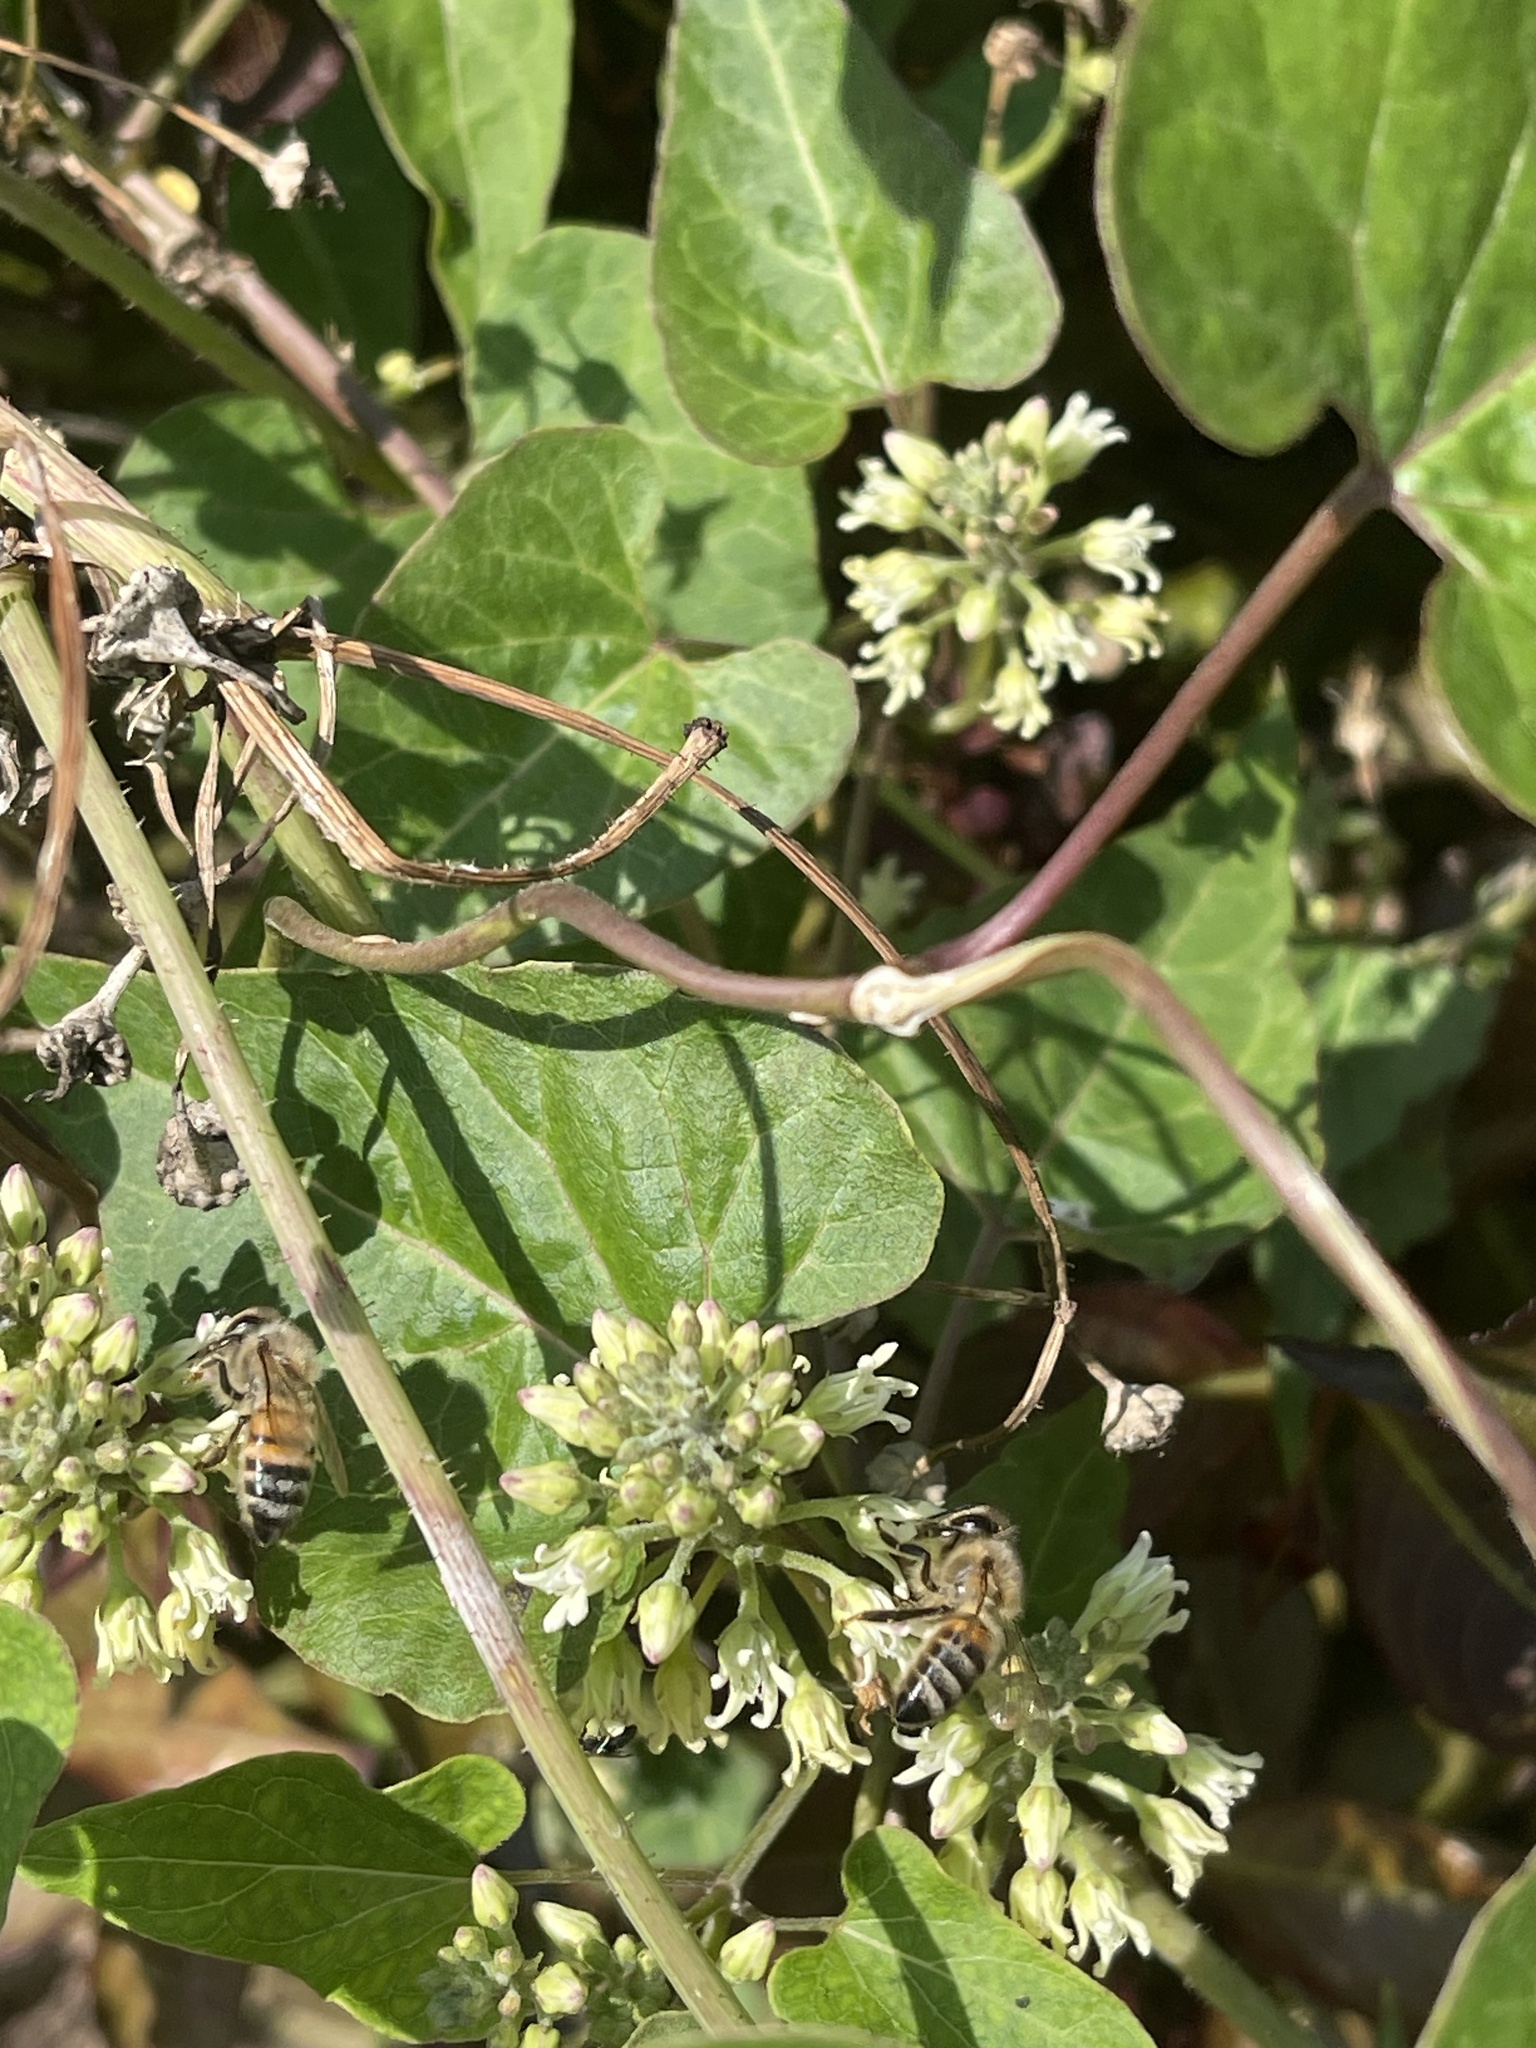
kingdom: Animalia
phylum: Arthropoda
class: Insecta
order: Hymenoptera
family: Apidae
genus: Apis
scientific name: Apis mellifera
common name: Honey bee
